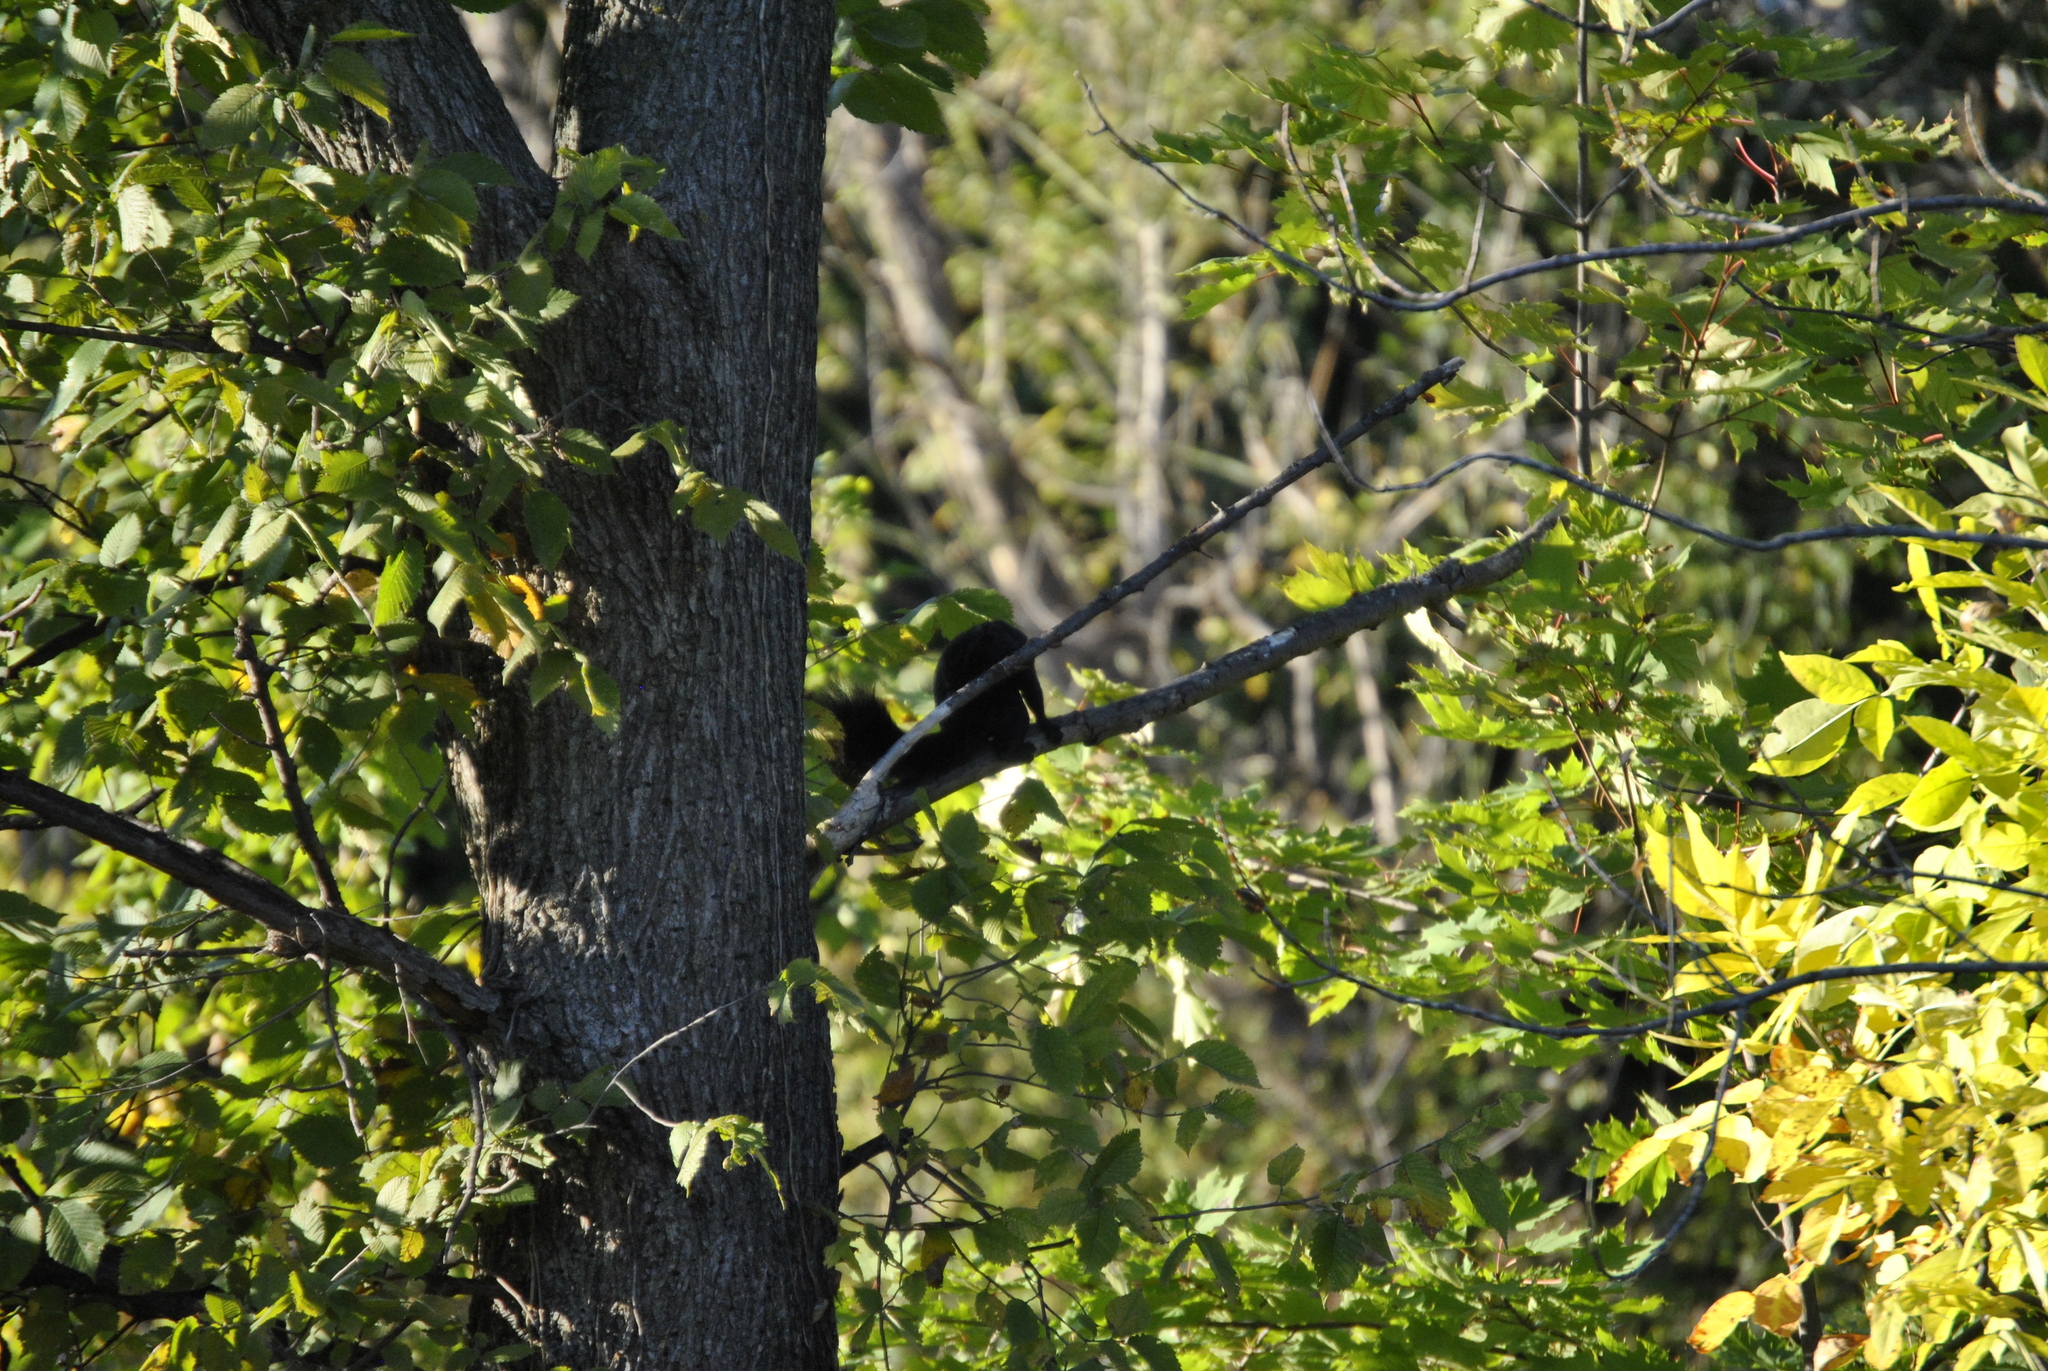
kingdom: Animalia
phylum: Chordata
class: Mammalia
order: Rodentia
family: Sciuridae
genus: Sciurus
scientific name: Sciurus carolinensis
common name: Eastern gray squirrel
